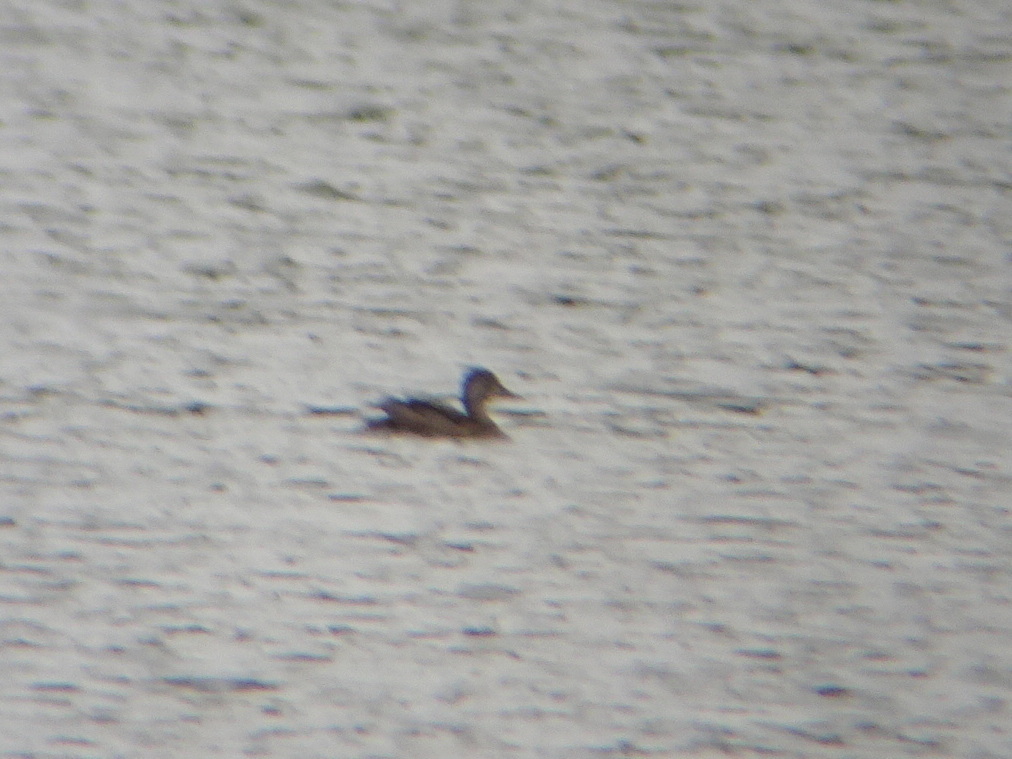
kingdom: Animalia
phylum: Chordata
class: Aves
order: Anseriformes
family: Anatidae
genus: Aythya
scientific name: Aythya collaris
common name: Ring-necked duck
